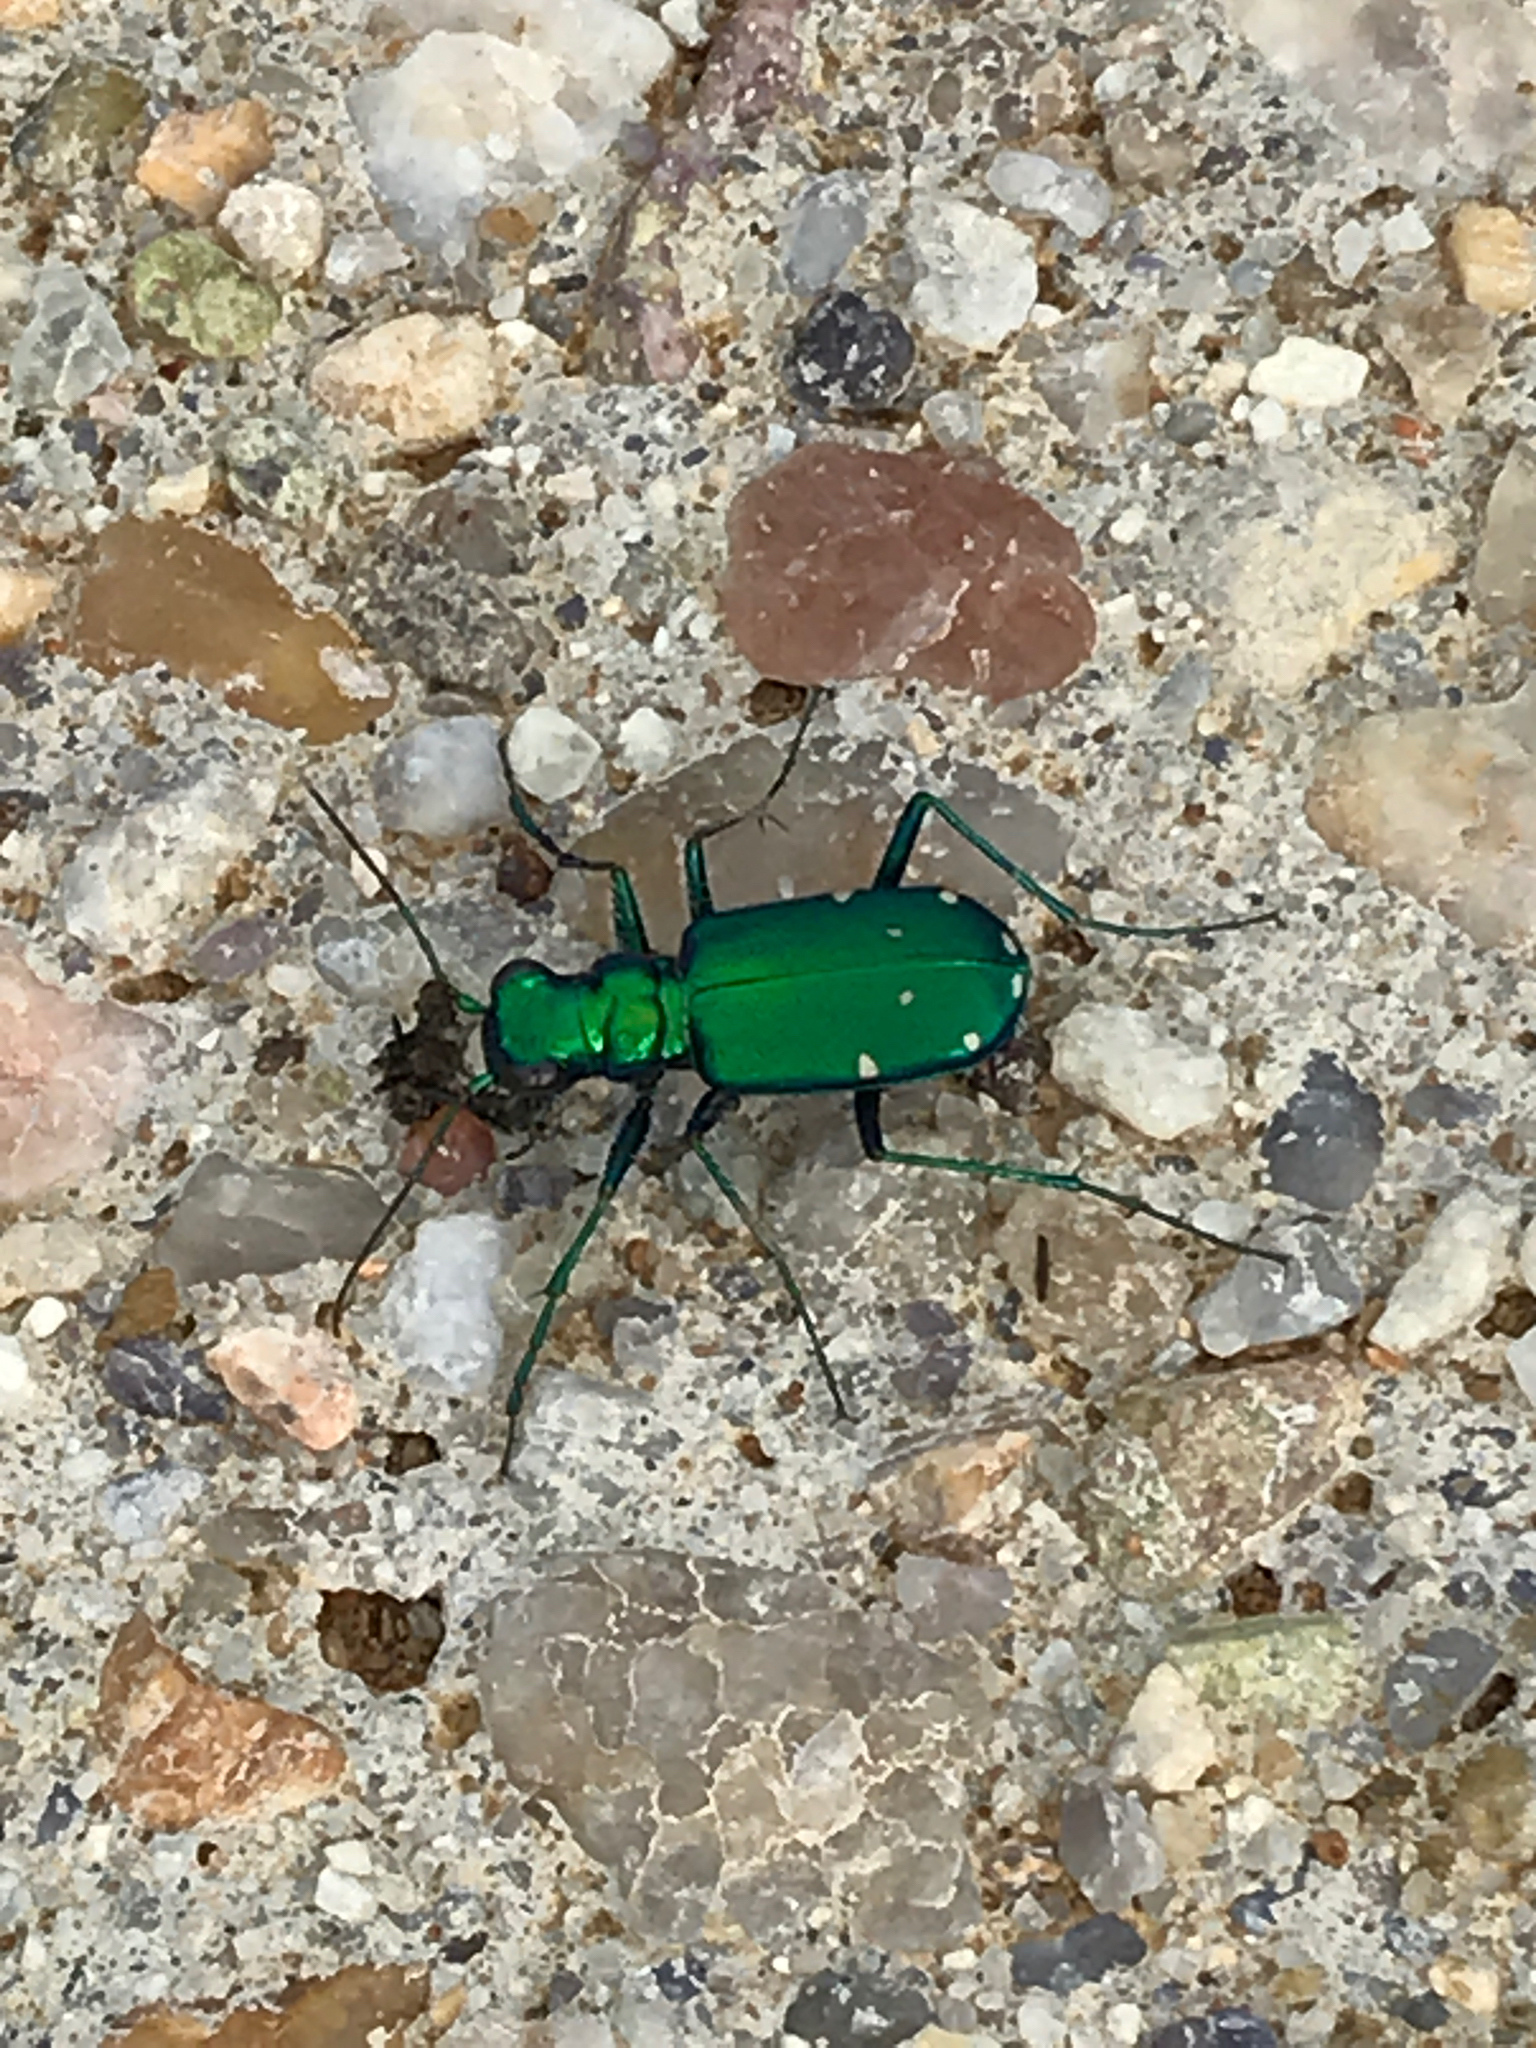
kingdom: Animalia
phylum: Arthropoda
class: Insecta
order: Coleoptera
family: Carabidae
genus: Cicindela
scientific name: Cicindela sexguttata
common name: Six-spotted tiger beetle
